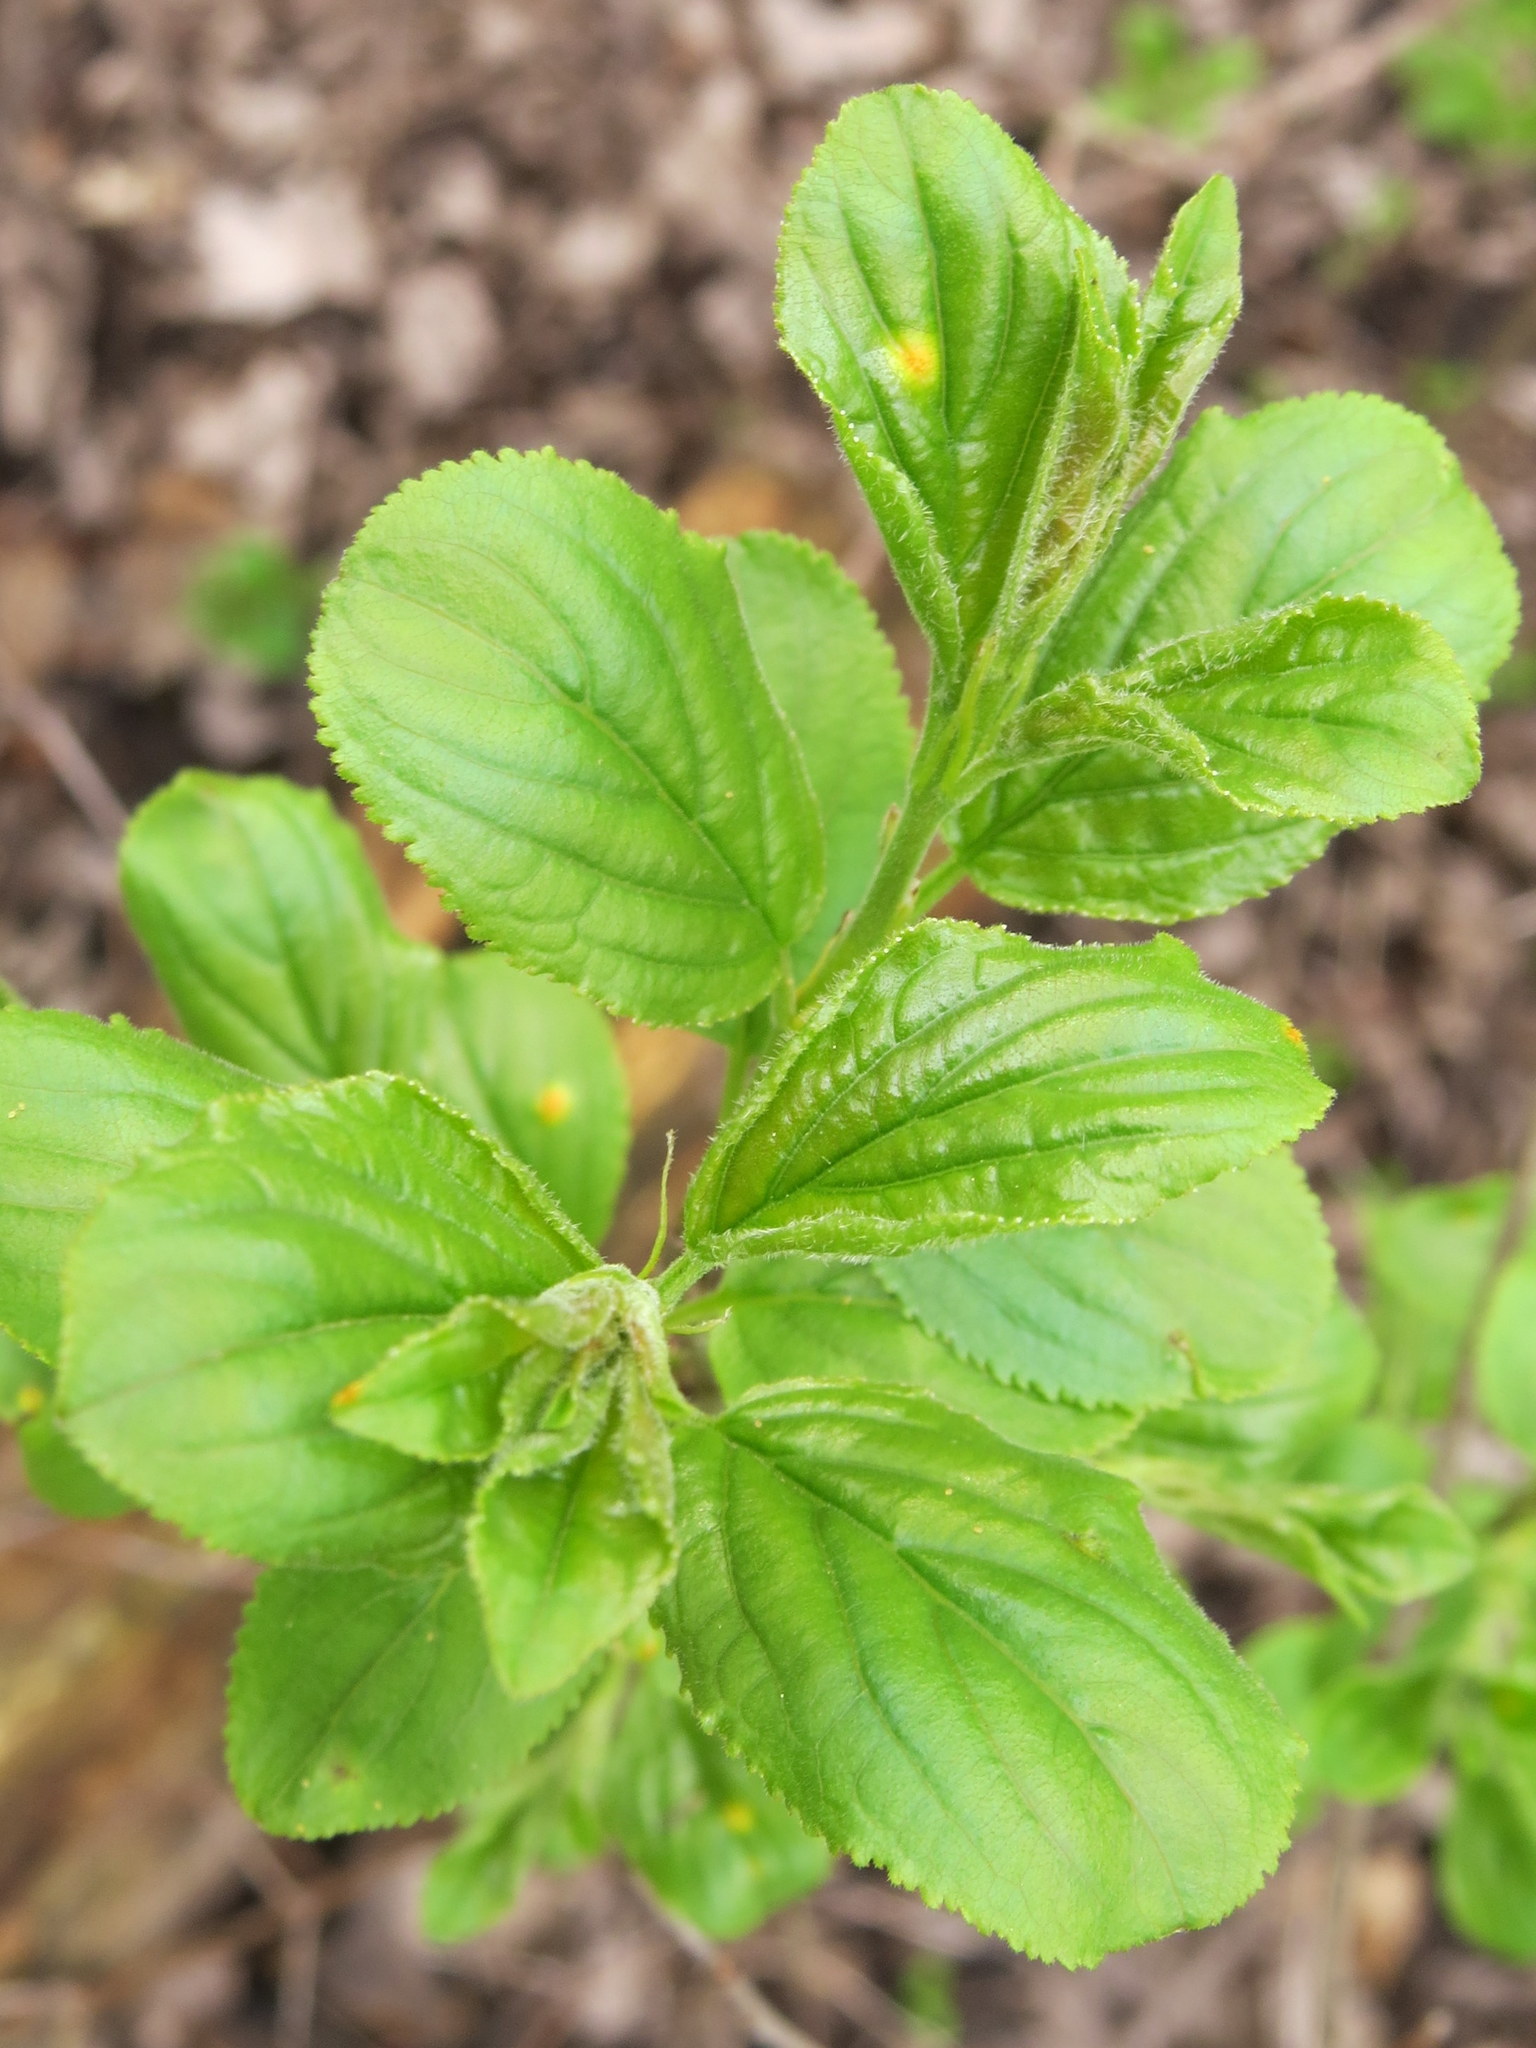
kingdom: Plantae
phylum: Tracheophyta
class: Magnoliopsida
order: Rosales
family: Rhamnaceae
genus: Rhamnus
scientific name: Rhamnus cathartica
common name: Common buckthorn
